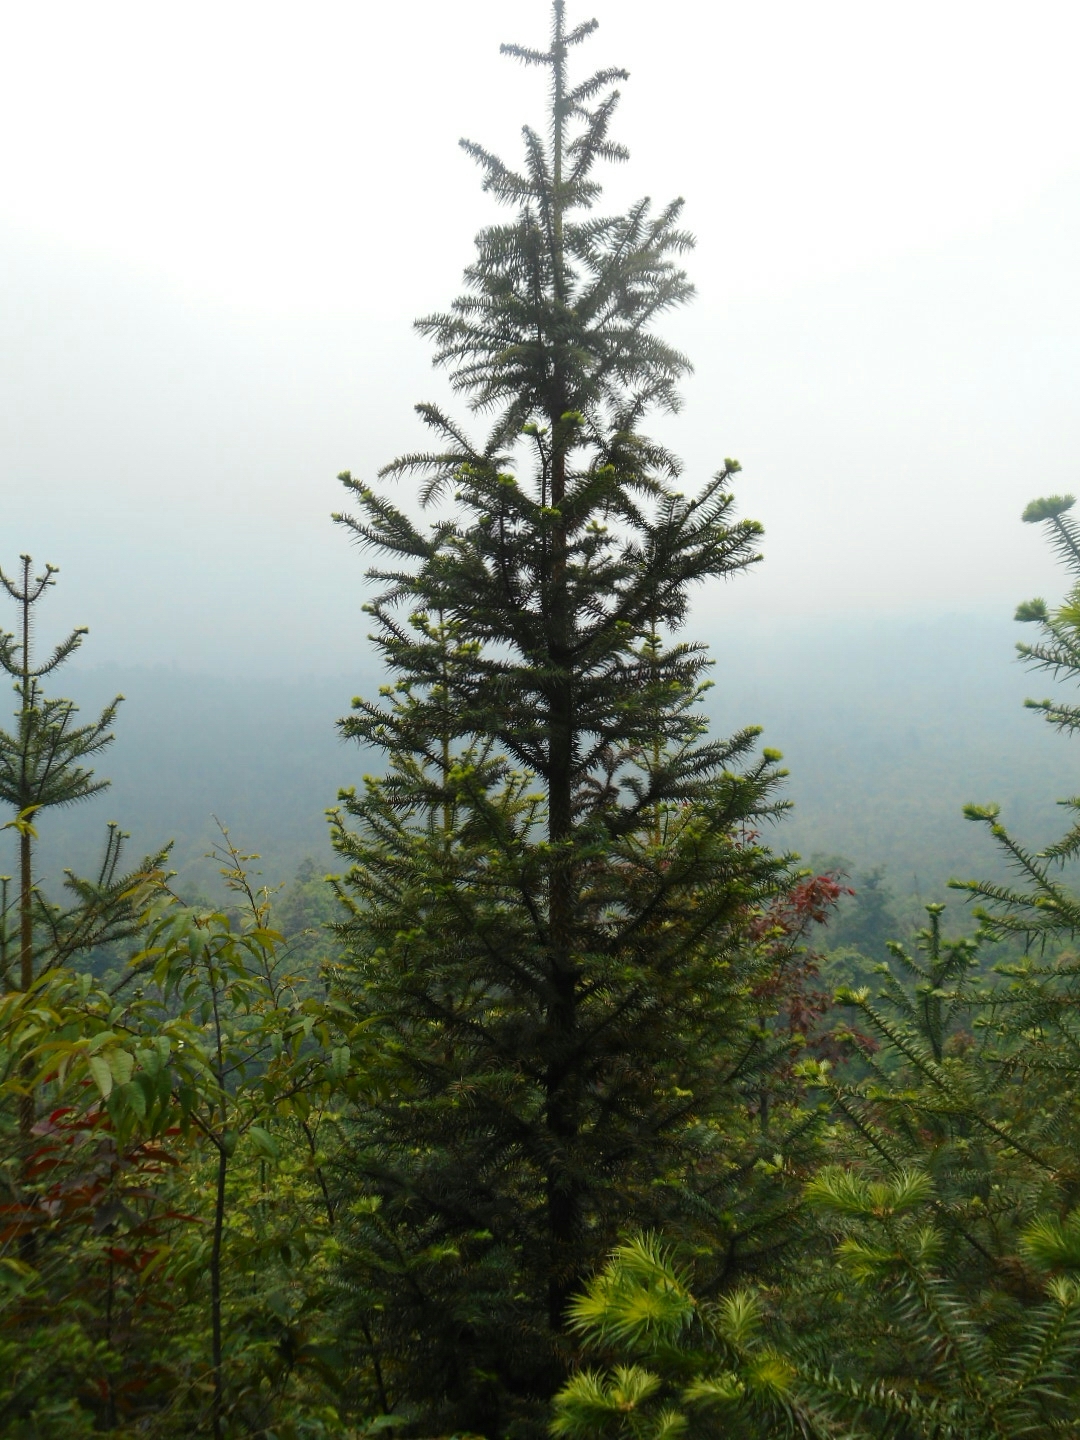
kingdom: Plantae
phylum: Tracheophyta
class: Pinopsida
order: Pinales
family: Cupressaceae
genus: Cunninghamia
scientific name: Cunninghamia lanceolata
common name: Chinese fir
